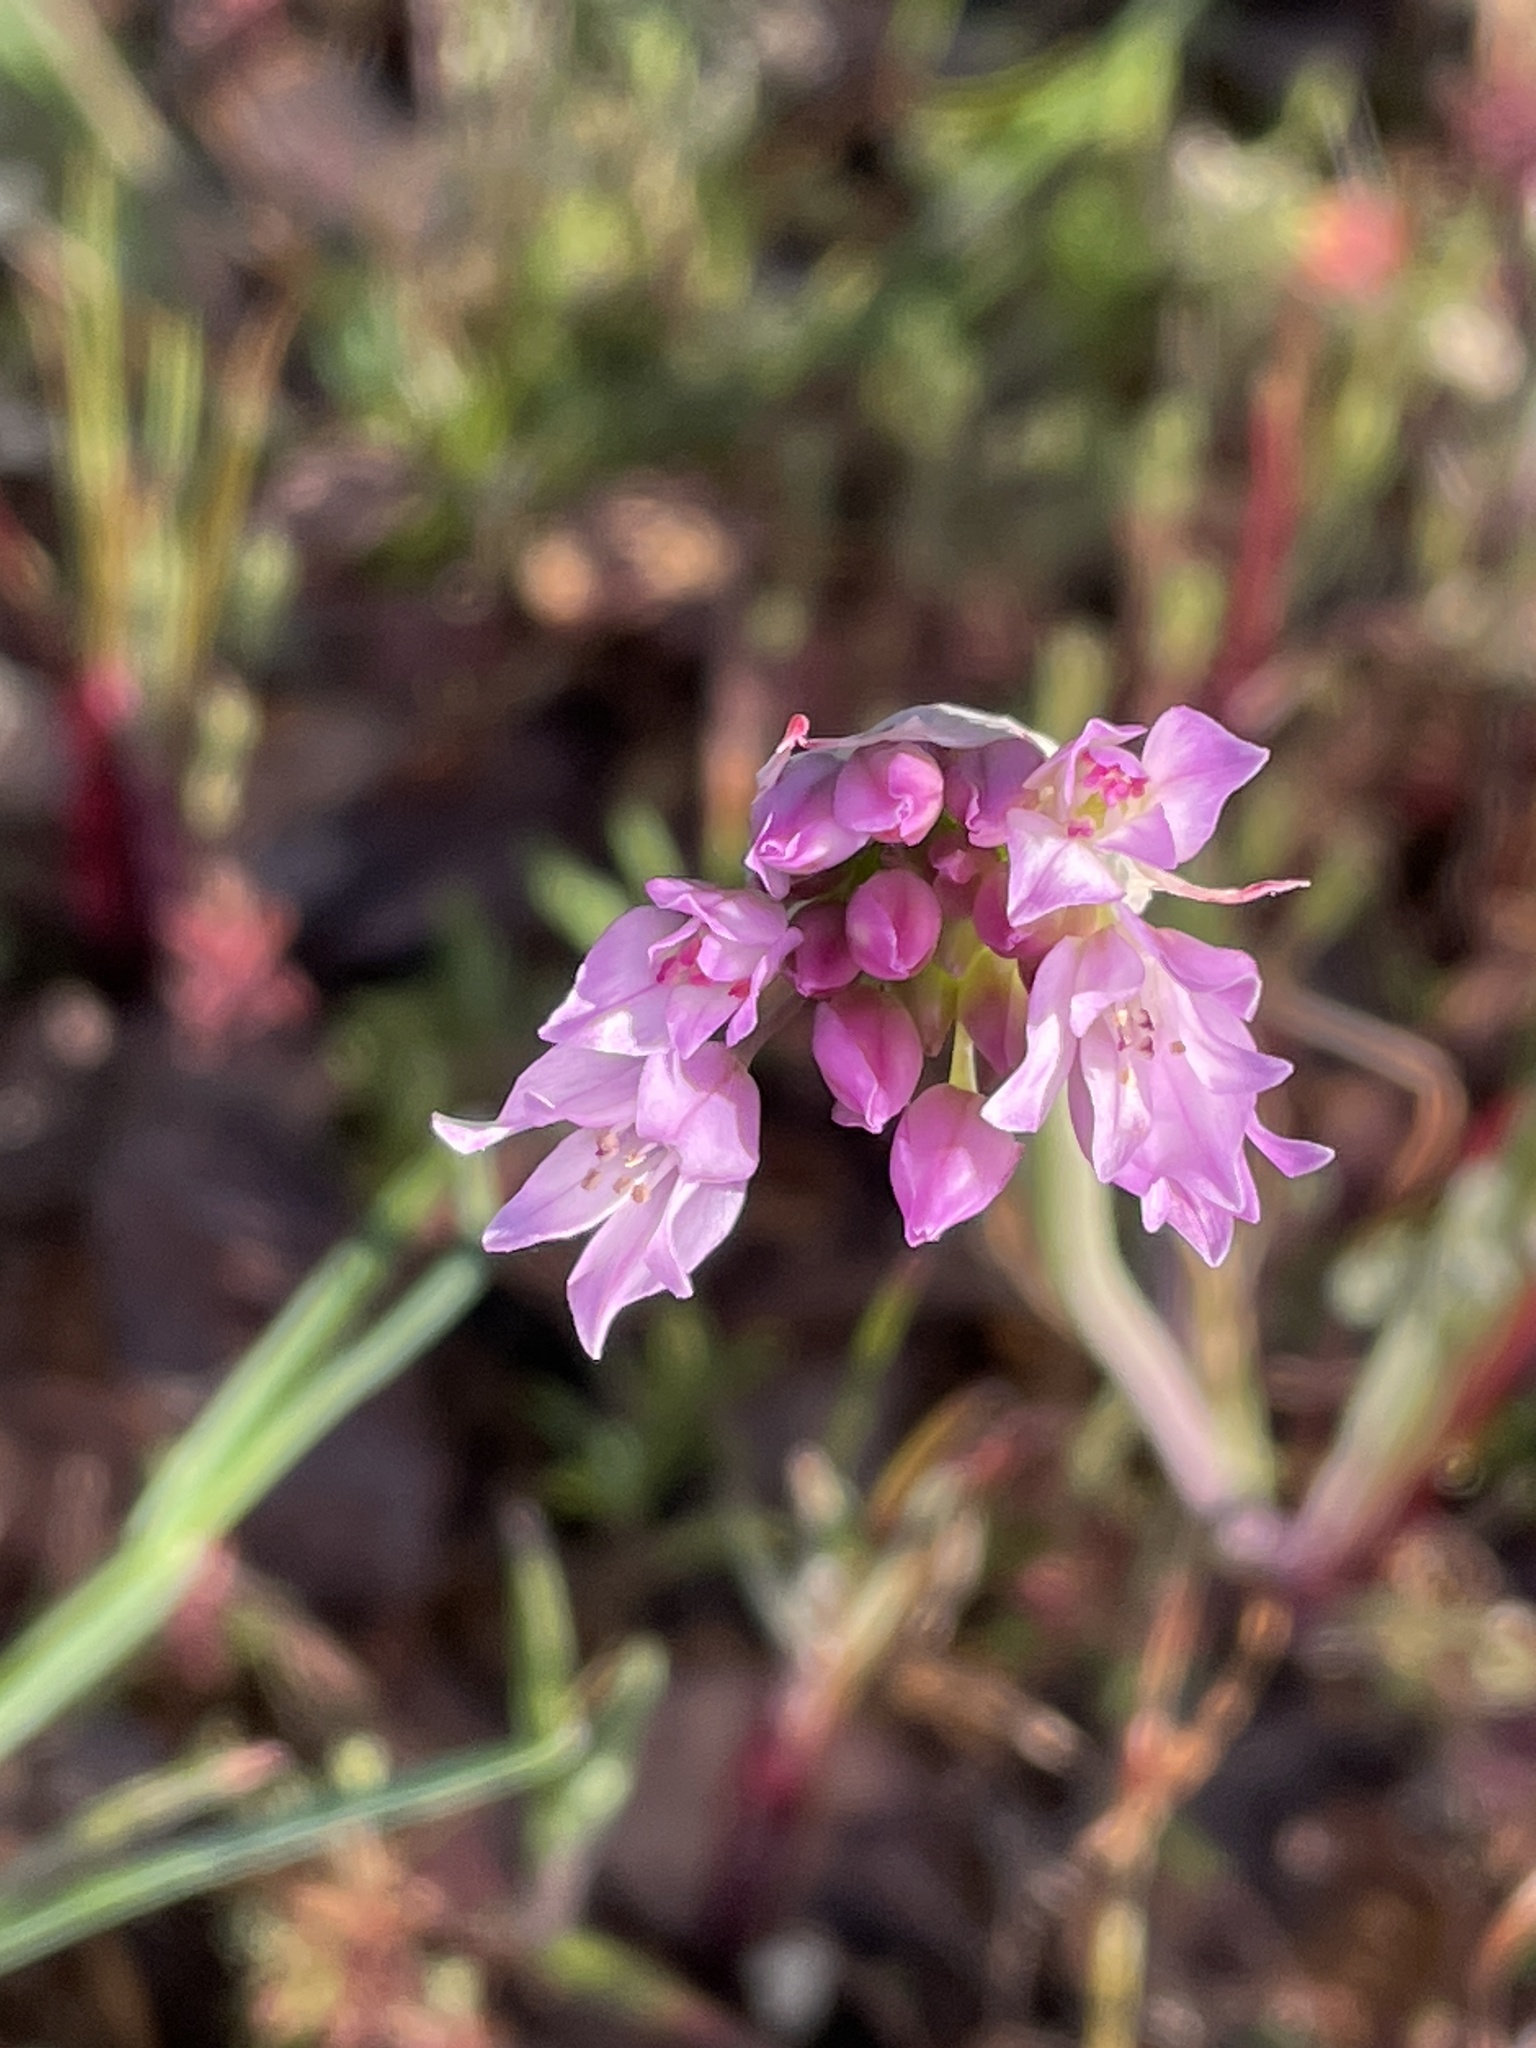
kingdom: Plantae
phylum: Tracheophyta
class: Liliopsida
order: Asparagales
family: Amaryllidaceae
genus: Allium
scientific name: Allium serra
